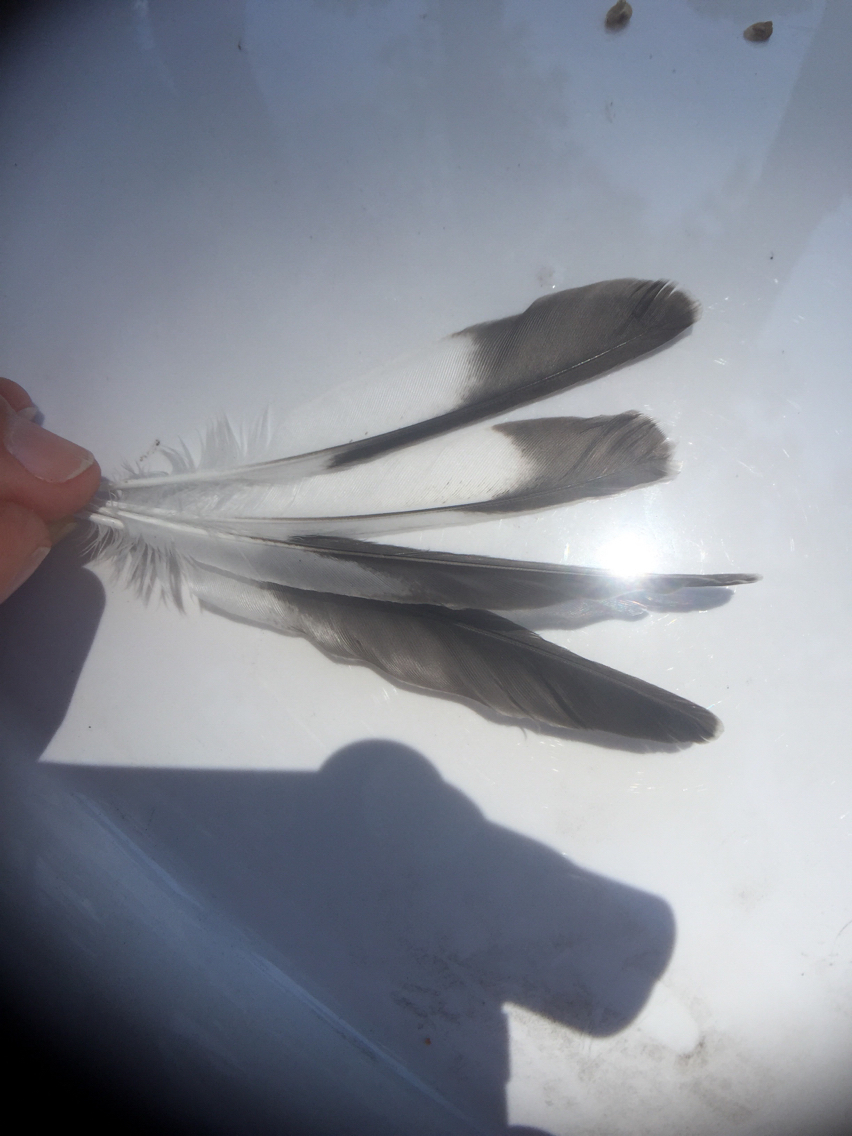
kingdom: Animalia
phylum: Chordata
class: Aves
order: Passeriformes
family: Mimidae
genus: Mimus
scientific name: Mimus polyglottos
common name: Northern mockingbird
